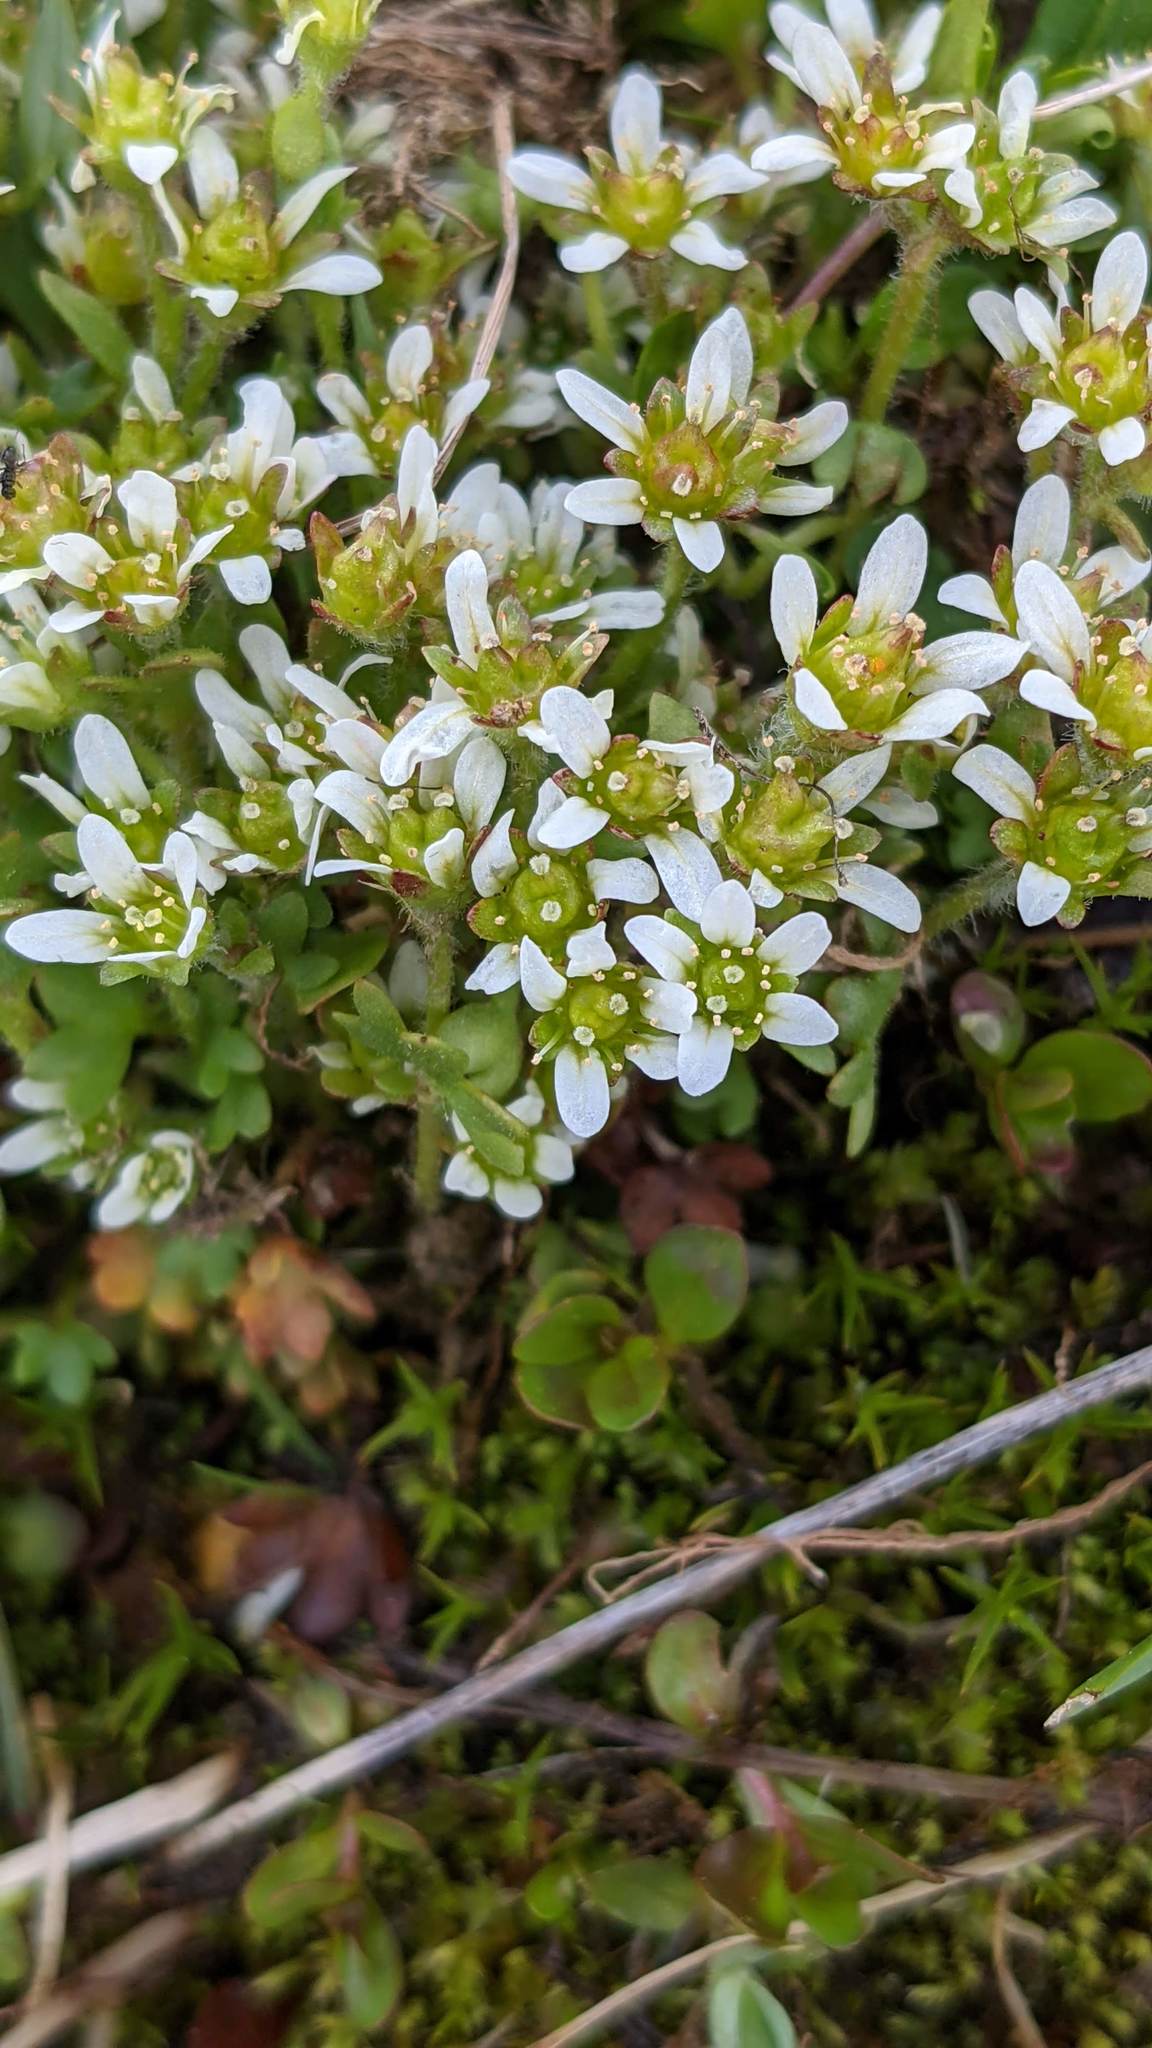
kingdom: Plantae
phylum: Tracheophyta
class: Magnoliopsida
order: Saxifragales
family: Saxifragaceae
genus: Saxifraga
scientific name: Saxifraga hyperborea
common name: Arctic saxifrage
